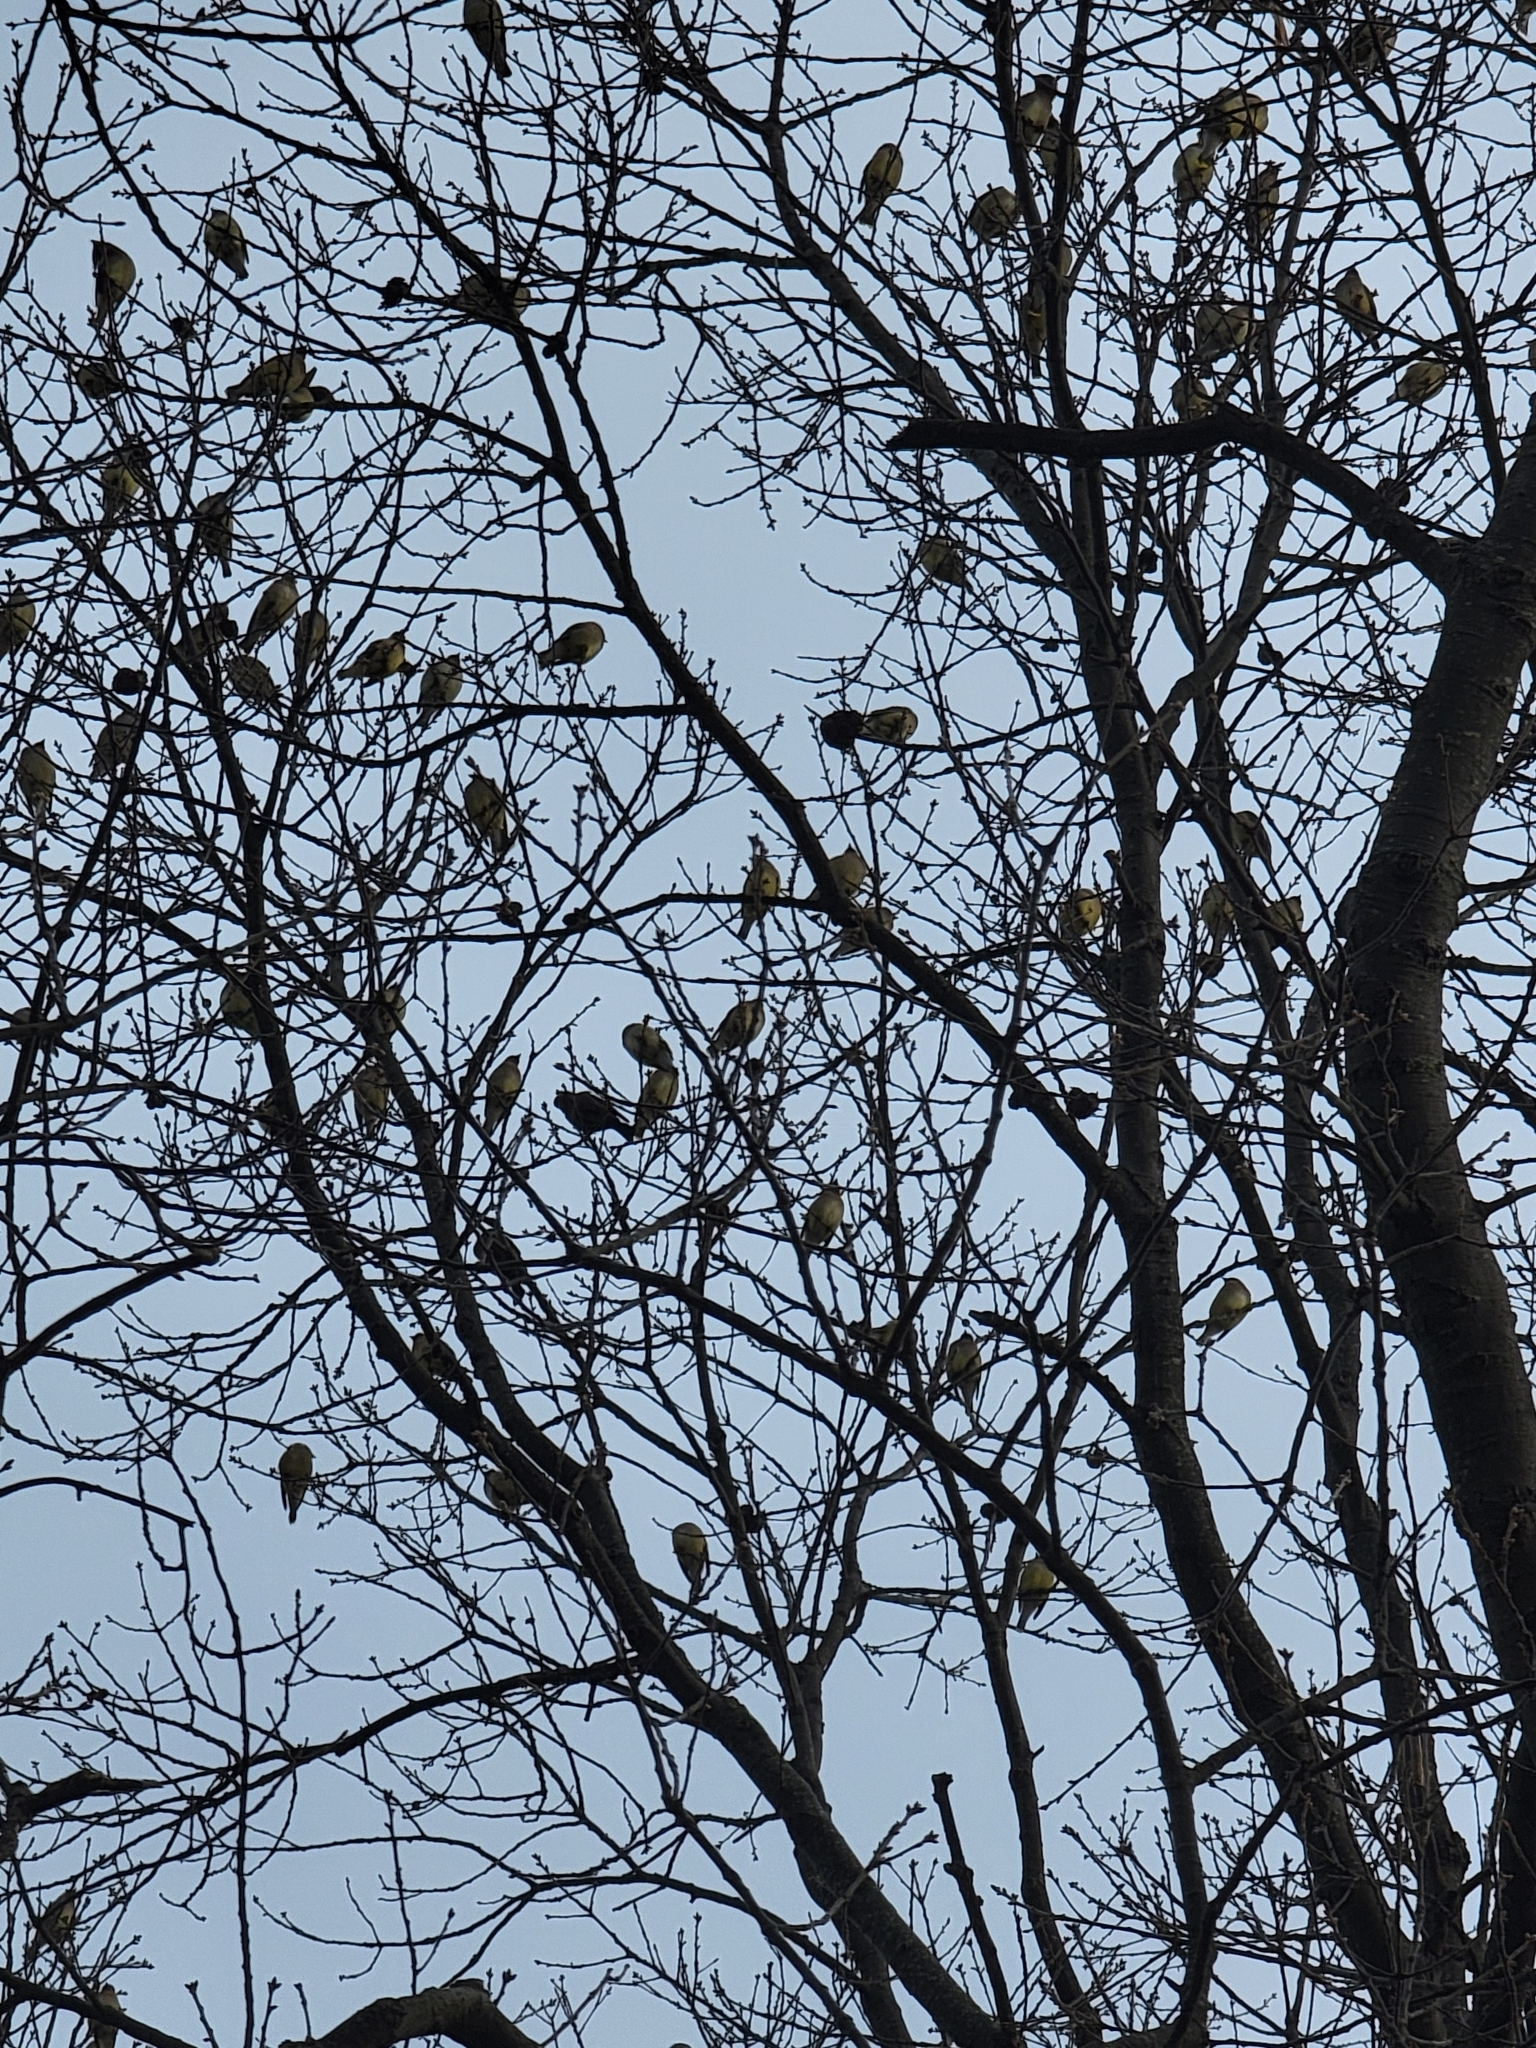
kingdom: Animalia
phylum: Chordata
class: Aves
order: Passeriformes
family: Bombycillidae
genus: Bombycilla
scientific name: Bombycilla cedrorum
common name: Cedar waxwing
